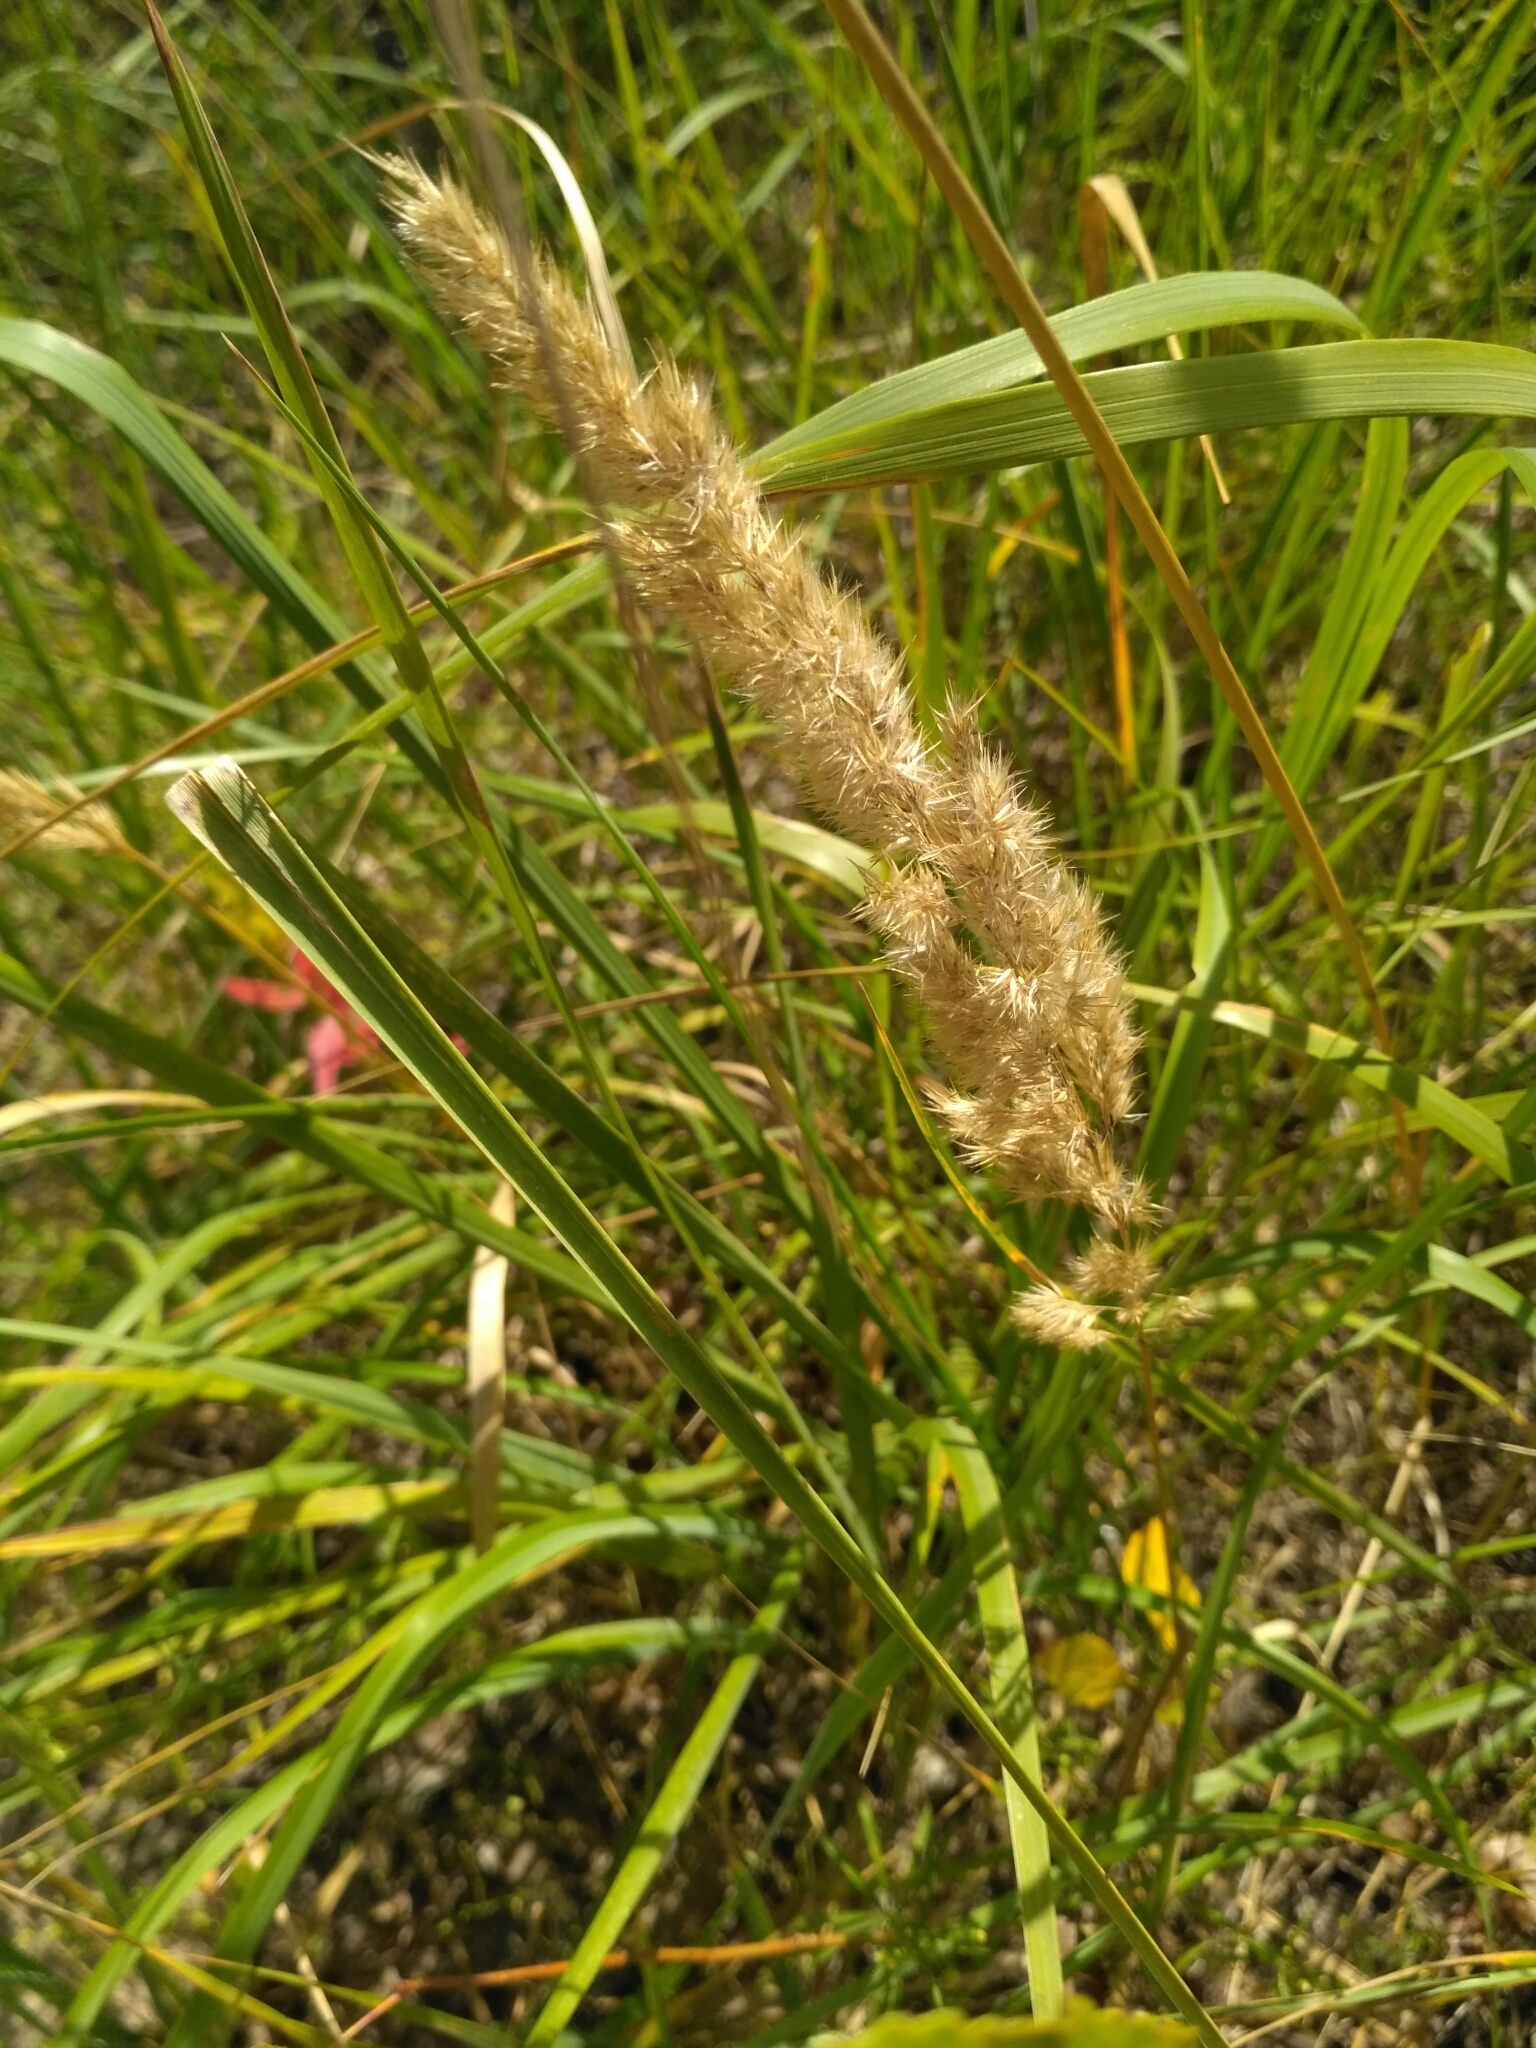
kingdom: Plantae
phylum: Tracheophyta
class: Liliopsida
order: Poales
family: Poaceae
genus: Calamagrostis
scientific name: Calamagrostis epigejos
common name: Wood small-reed
